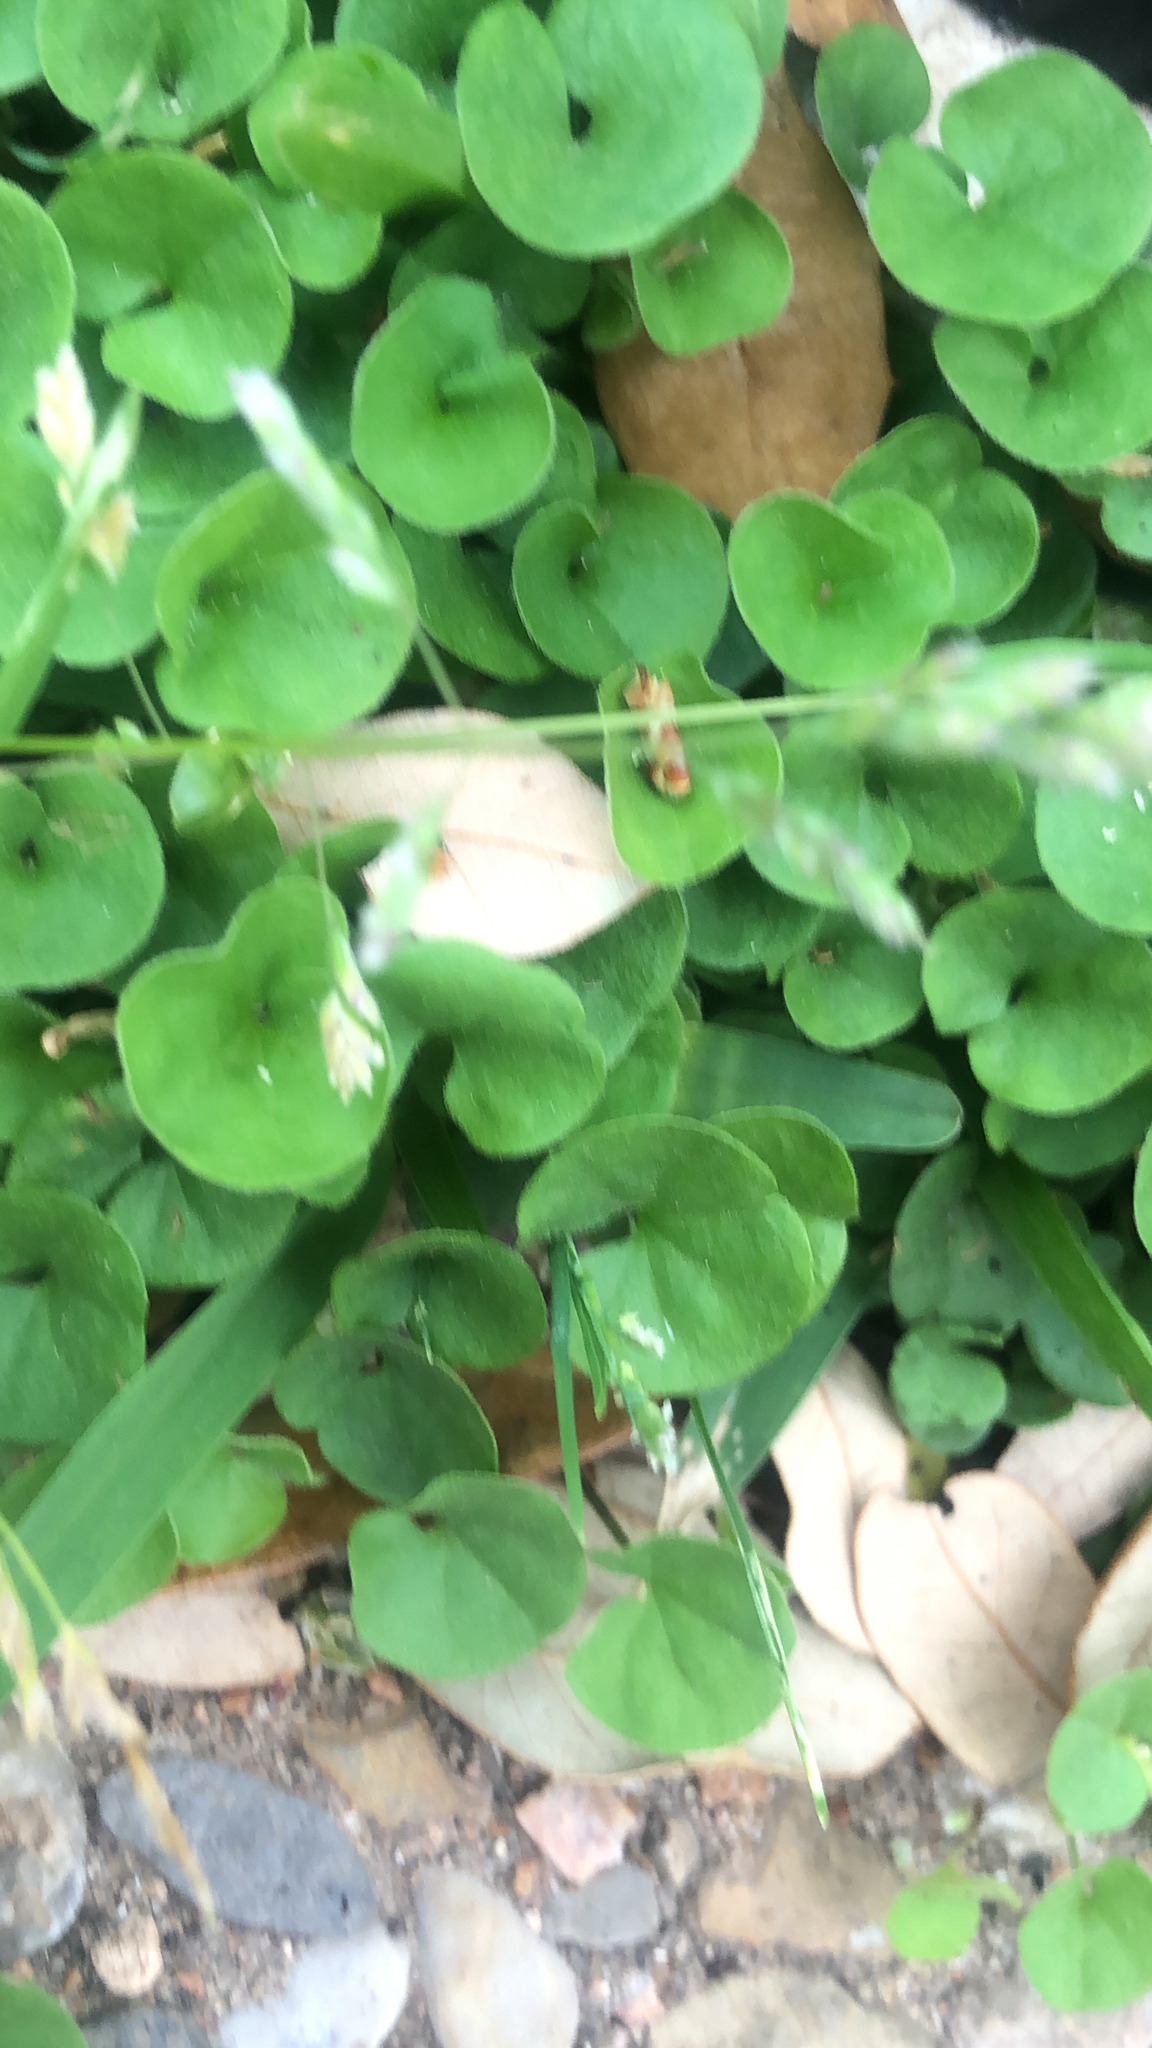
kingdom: Plantae
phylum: Tracheophyta
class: Magnoliopsida
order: Solanales
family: Convolvulaceae
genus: Dichondra
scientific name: Dichondra carolinensis
